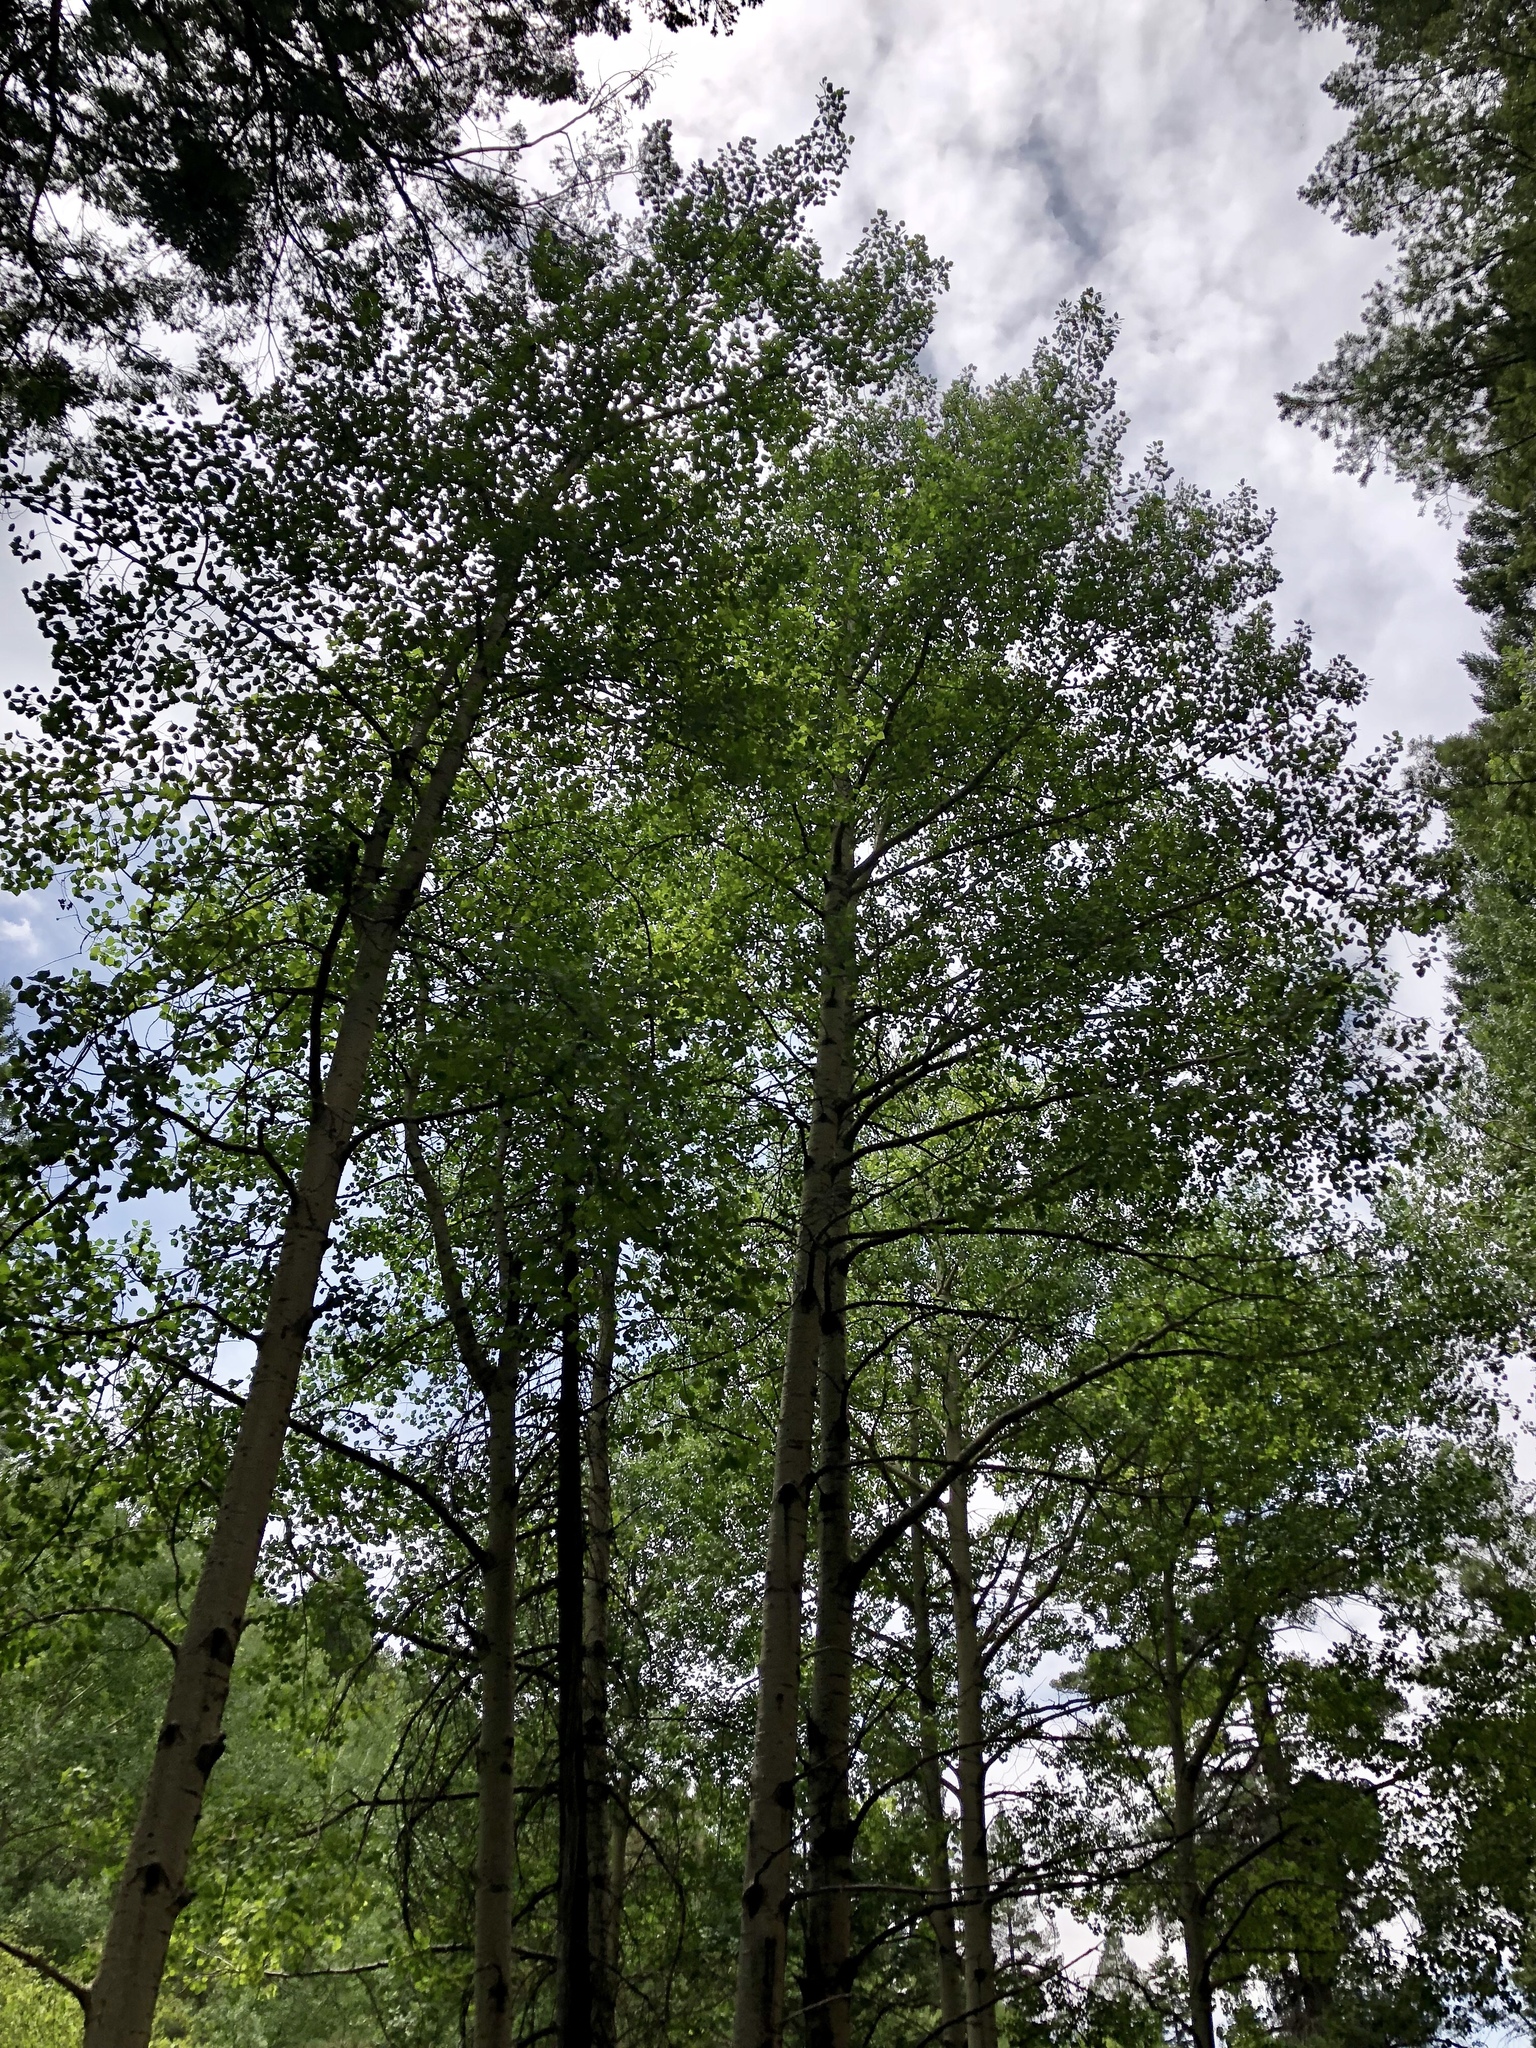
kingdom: Plantae
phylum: Tracheophyta
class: Magnoliopsida
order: Malpighiales
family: Salicaceae
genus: Populus
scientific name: Populus tremuloides
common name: Quaking aspen
